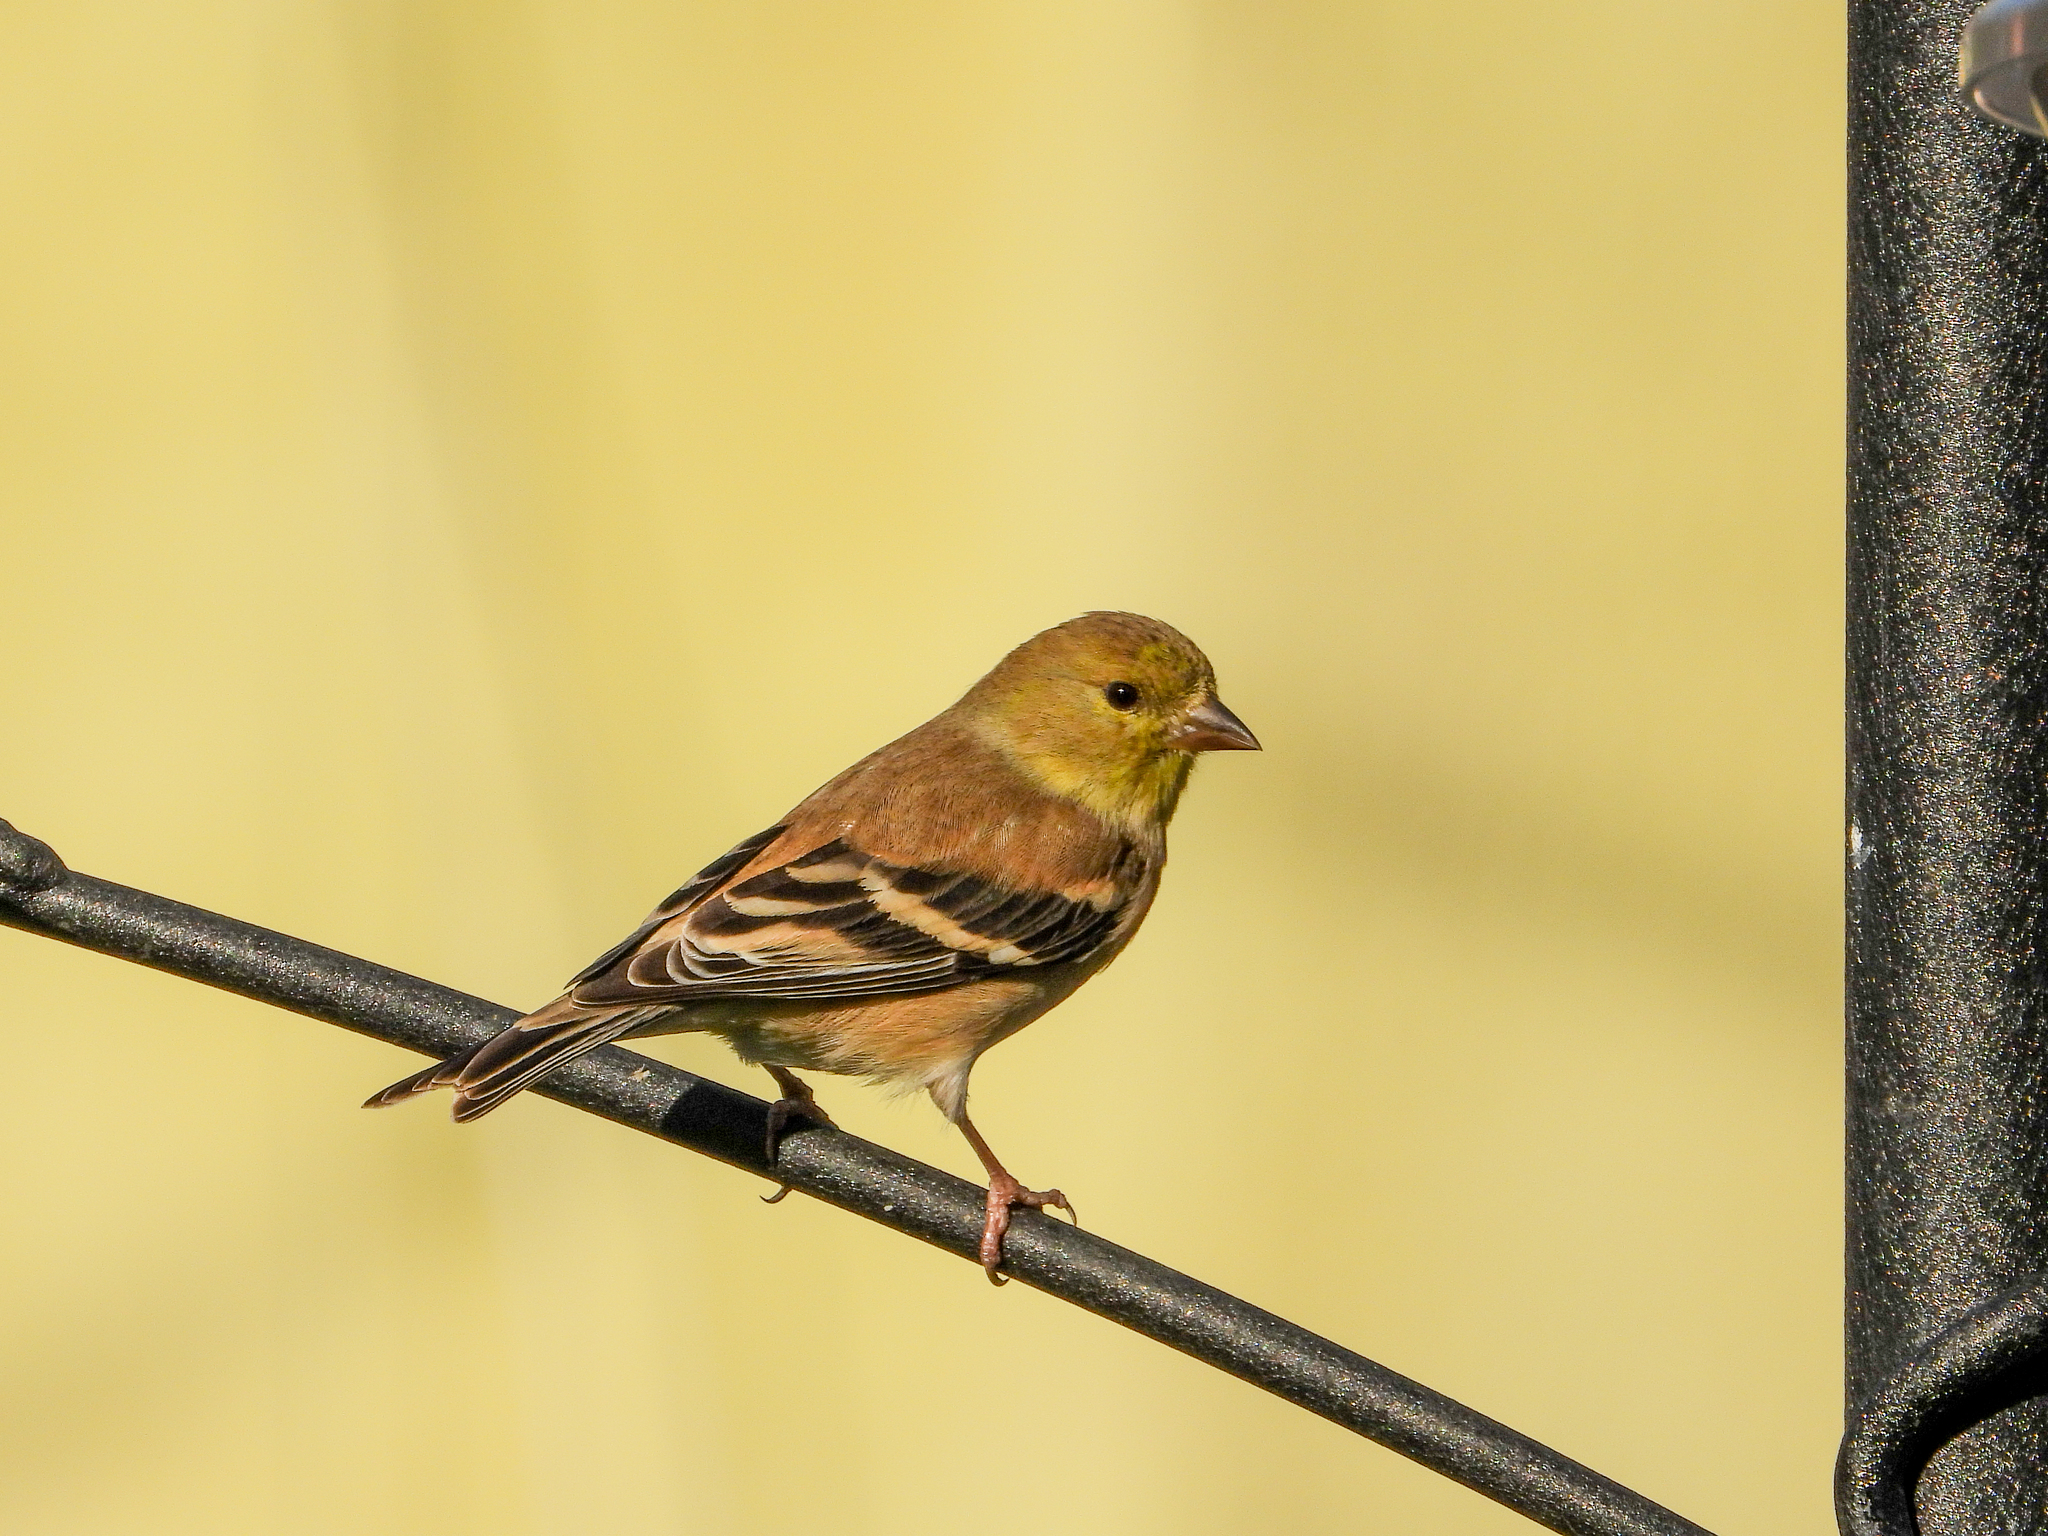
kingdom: Animalia
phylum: Chordata
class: Aves
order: Passeriformes
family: Fringillidae
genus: Spinus
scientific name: Spinus tristis
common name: American goldfinch
